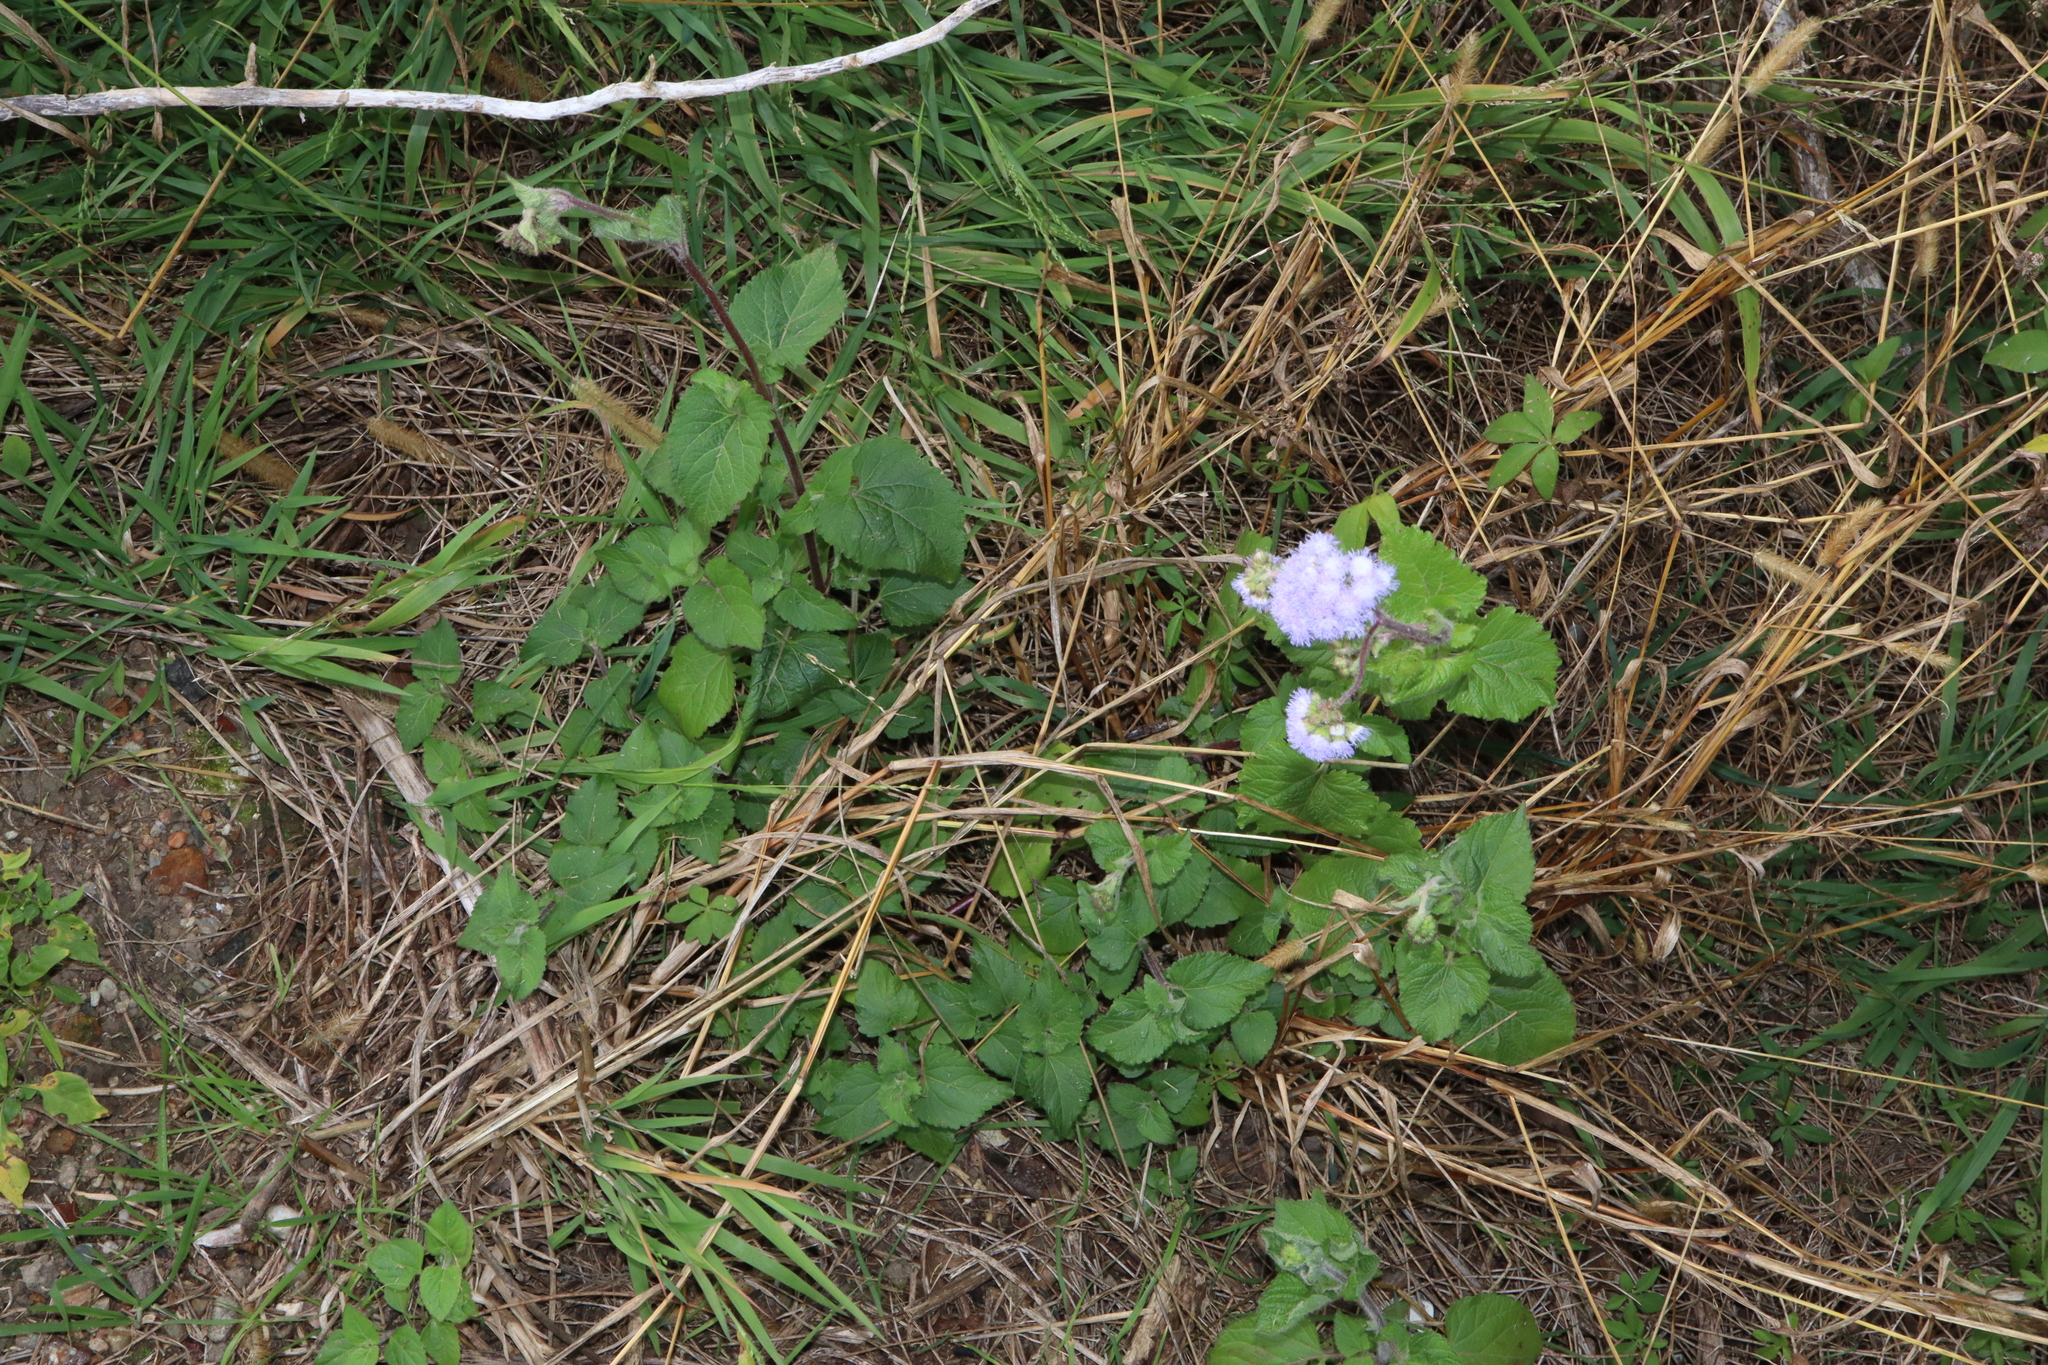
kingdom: Plantae
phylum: Tracheophyta
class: Magnoliopsida
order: Asterales
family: Asteraceae
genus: Ageratum
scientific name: Ageratum houstonianum
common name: Bluemink
